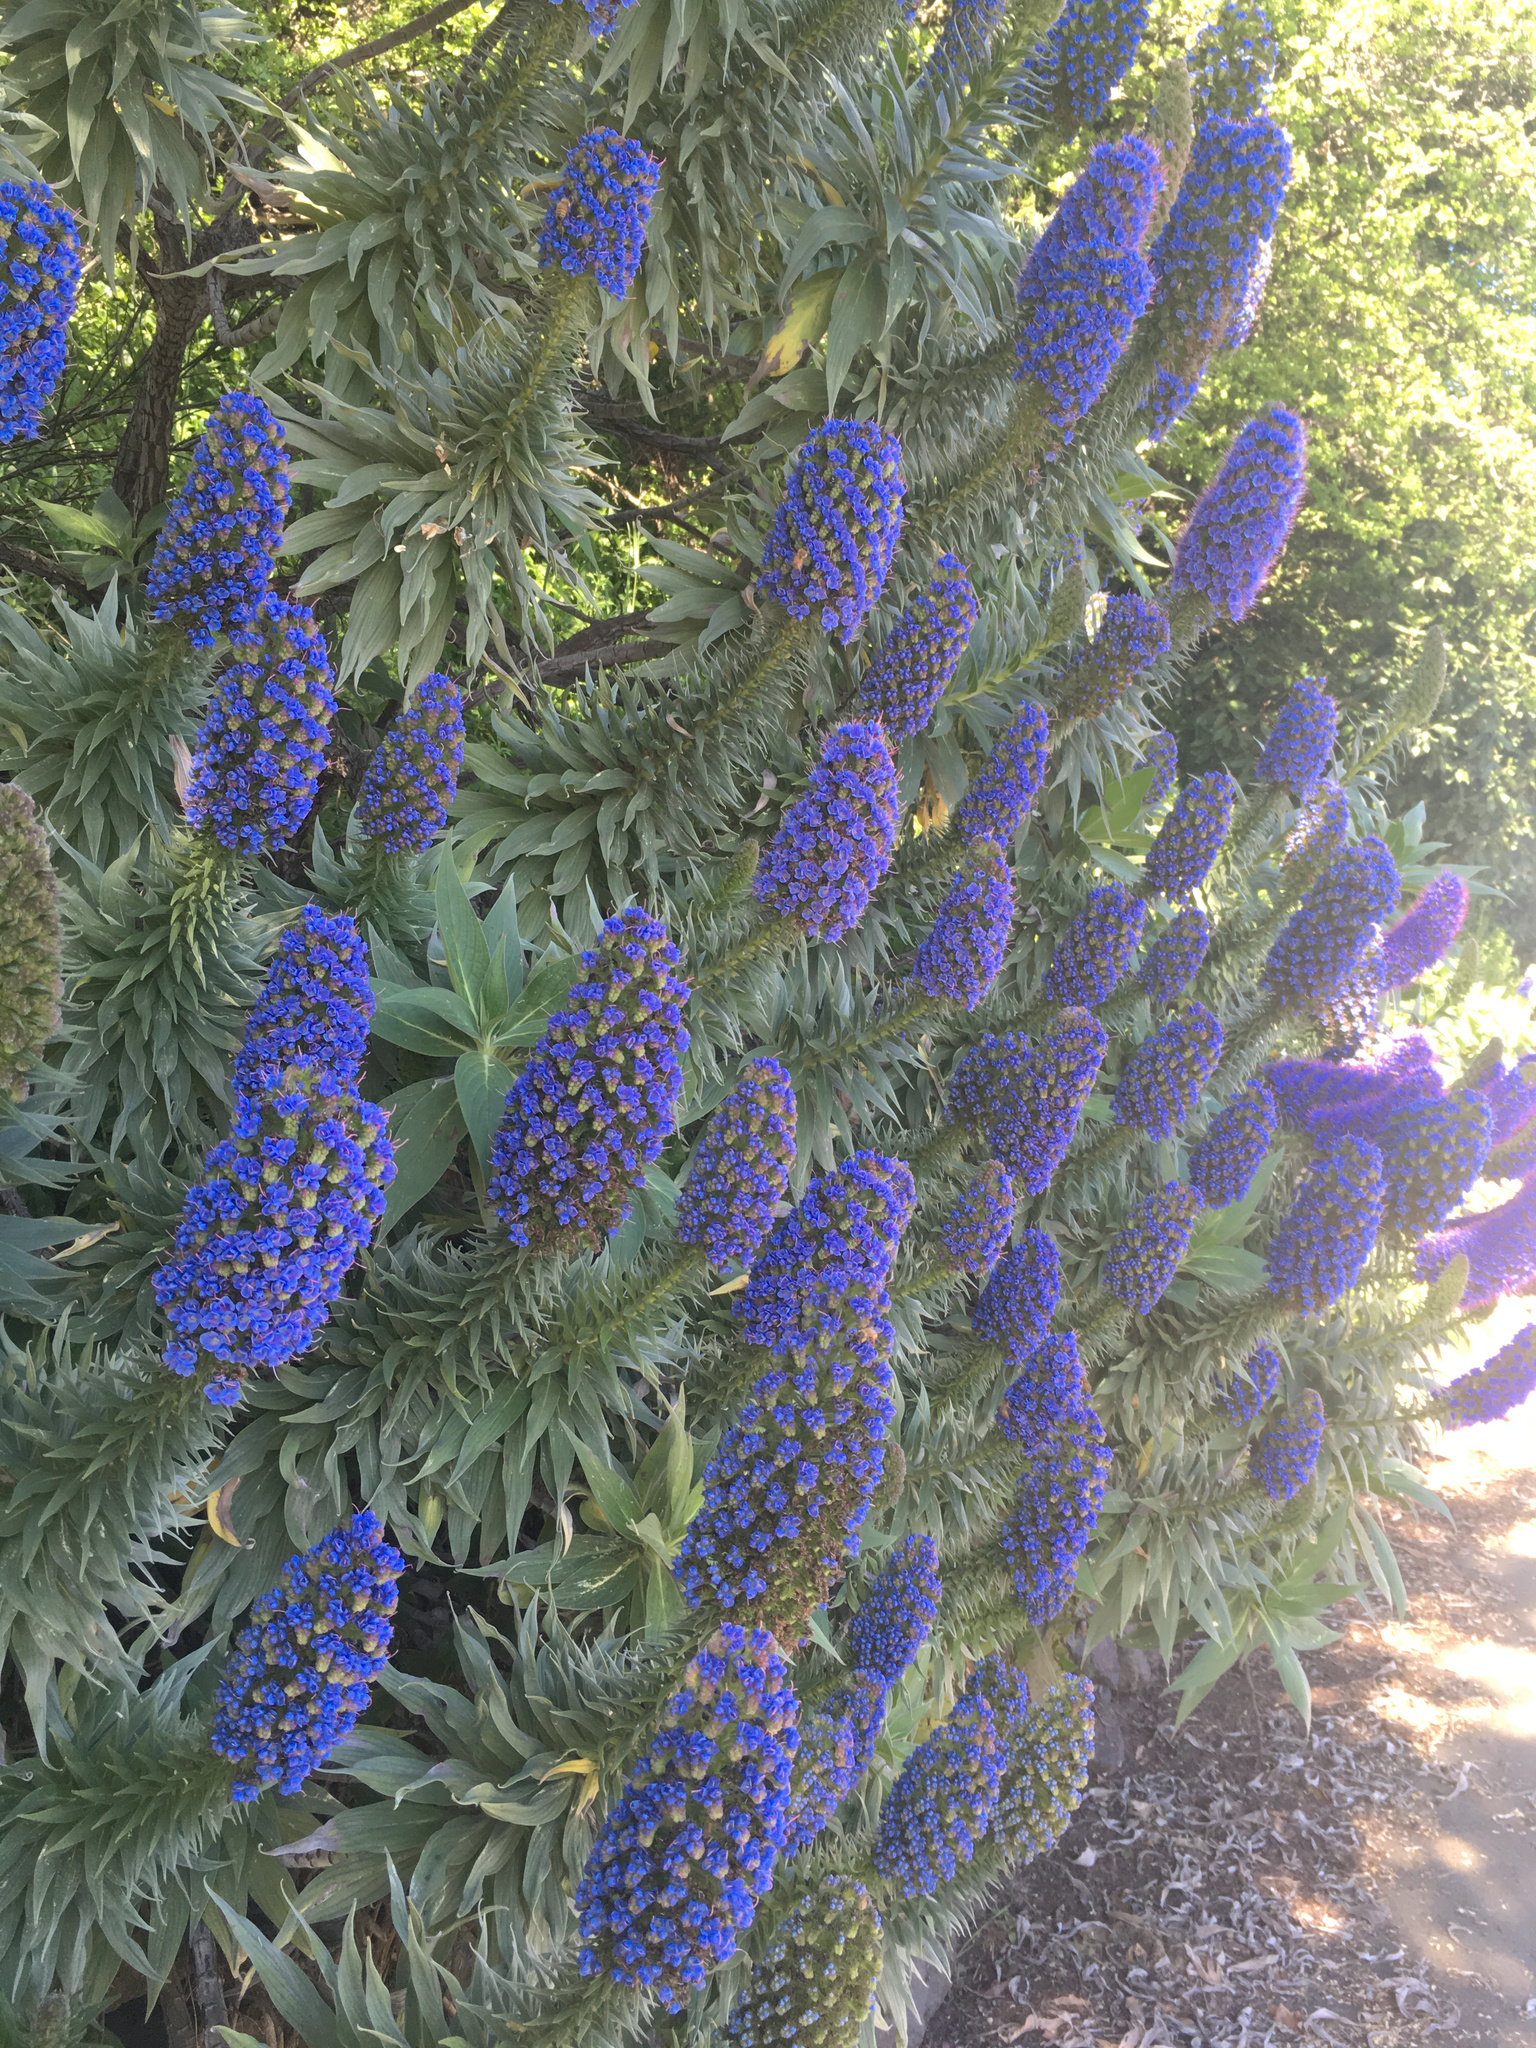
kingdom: Plantae
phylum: Tracheophyta
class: Magnoliopsida
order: Boraginales
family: Boraginaceae
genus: Echium
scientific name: Echium candicans
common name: Pride of madeira
